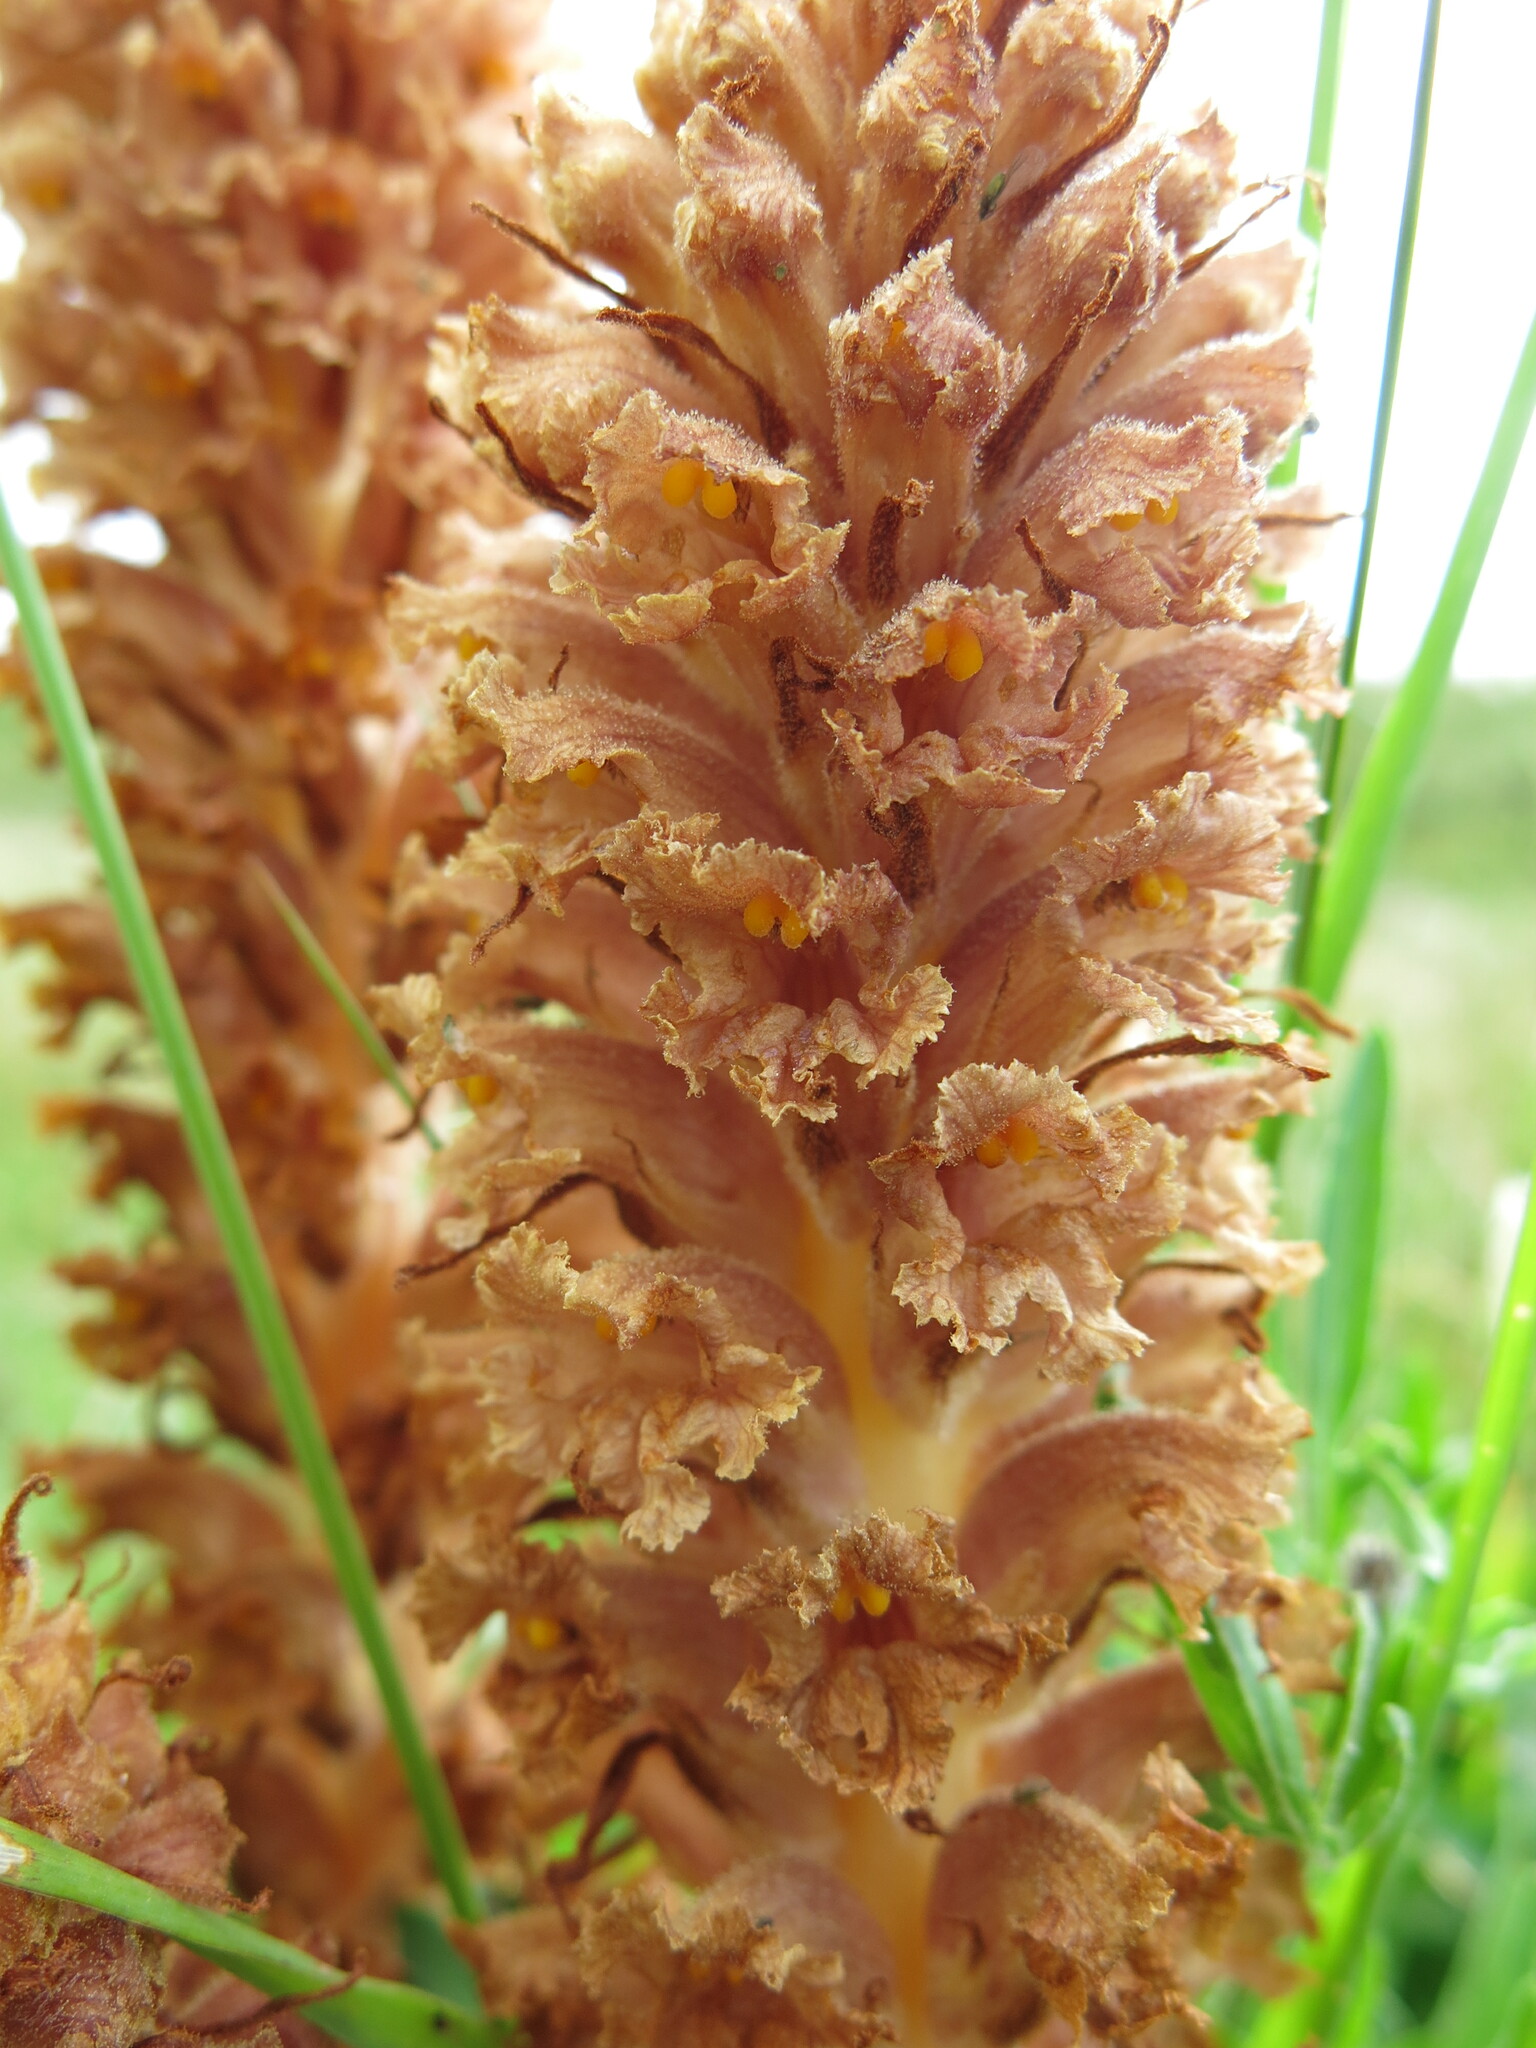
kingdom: Plantae
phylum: Tracheophyta
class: Magnoliopsida
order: Lamiales
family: Orobanchaceae
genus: Orobanche
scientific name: Orobanche elatior
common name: Knapweed broomrape
